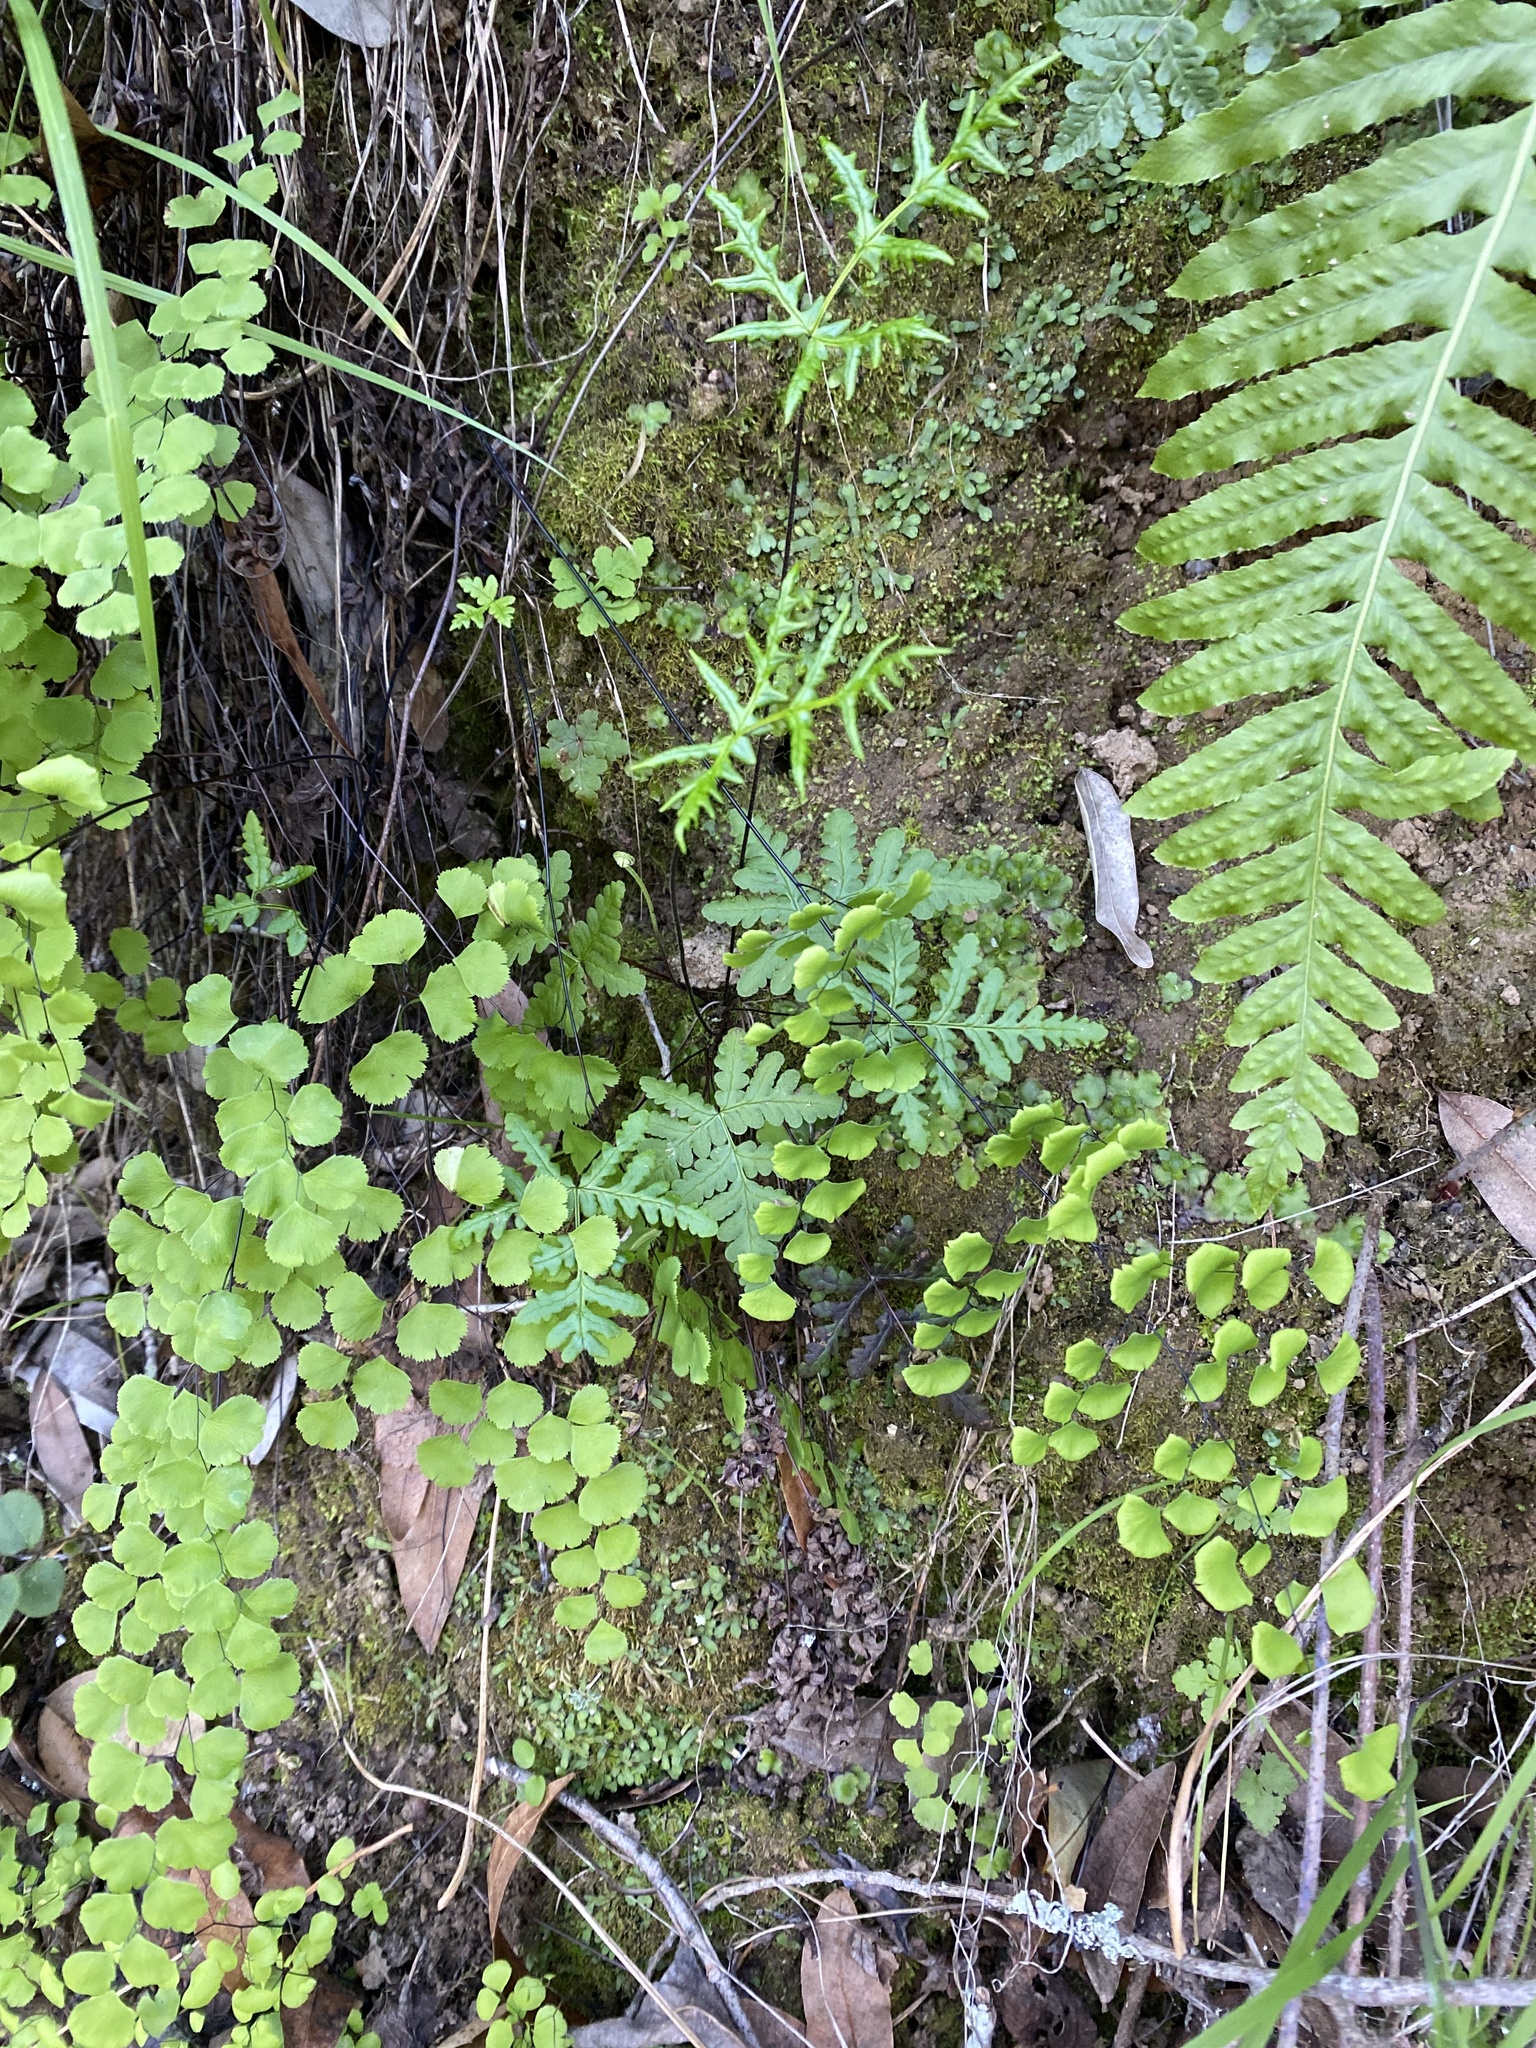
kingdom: Plantae
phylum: Tracheophyta
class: Polypodiopsida
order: Polypodiales
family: Pteridaceae
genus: Pentagramma
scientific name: Pentagramma triangularis
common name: Gold fern
